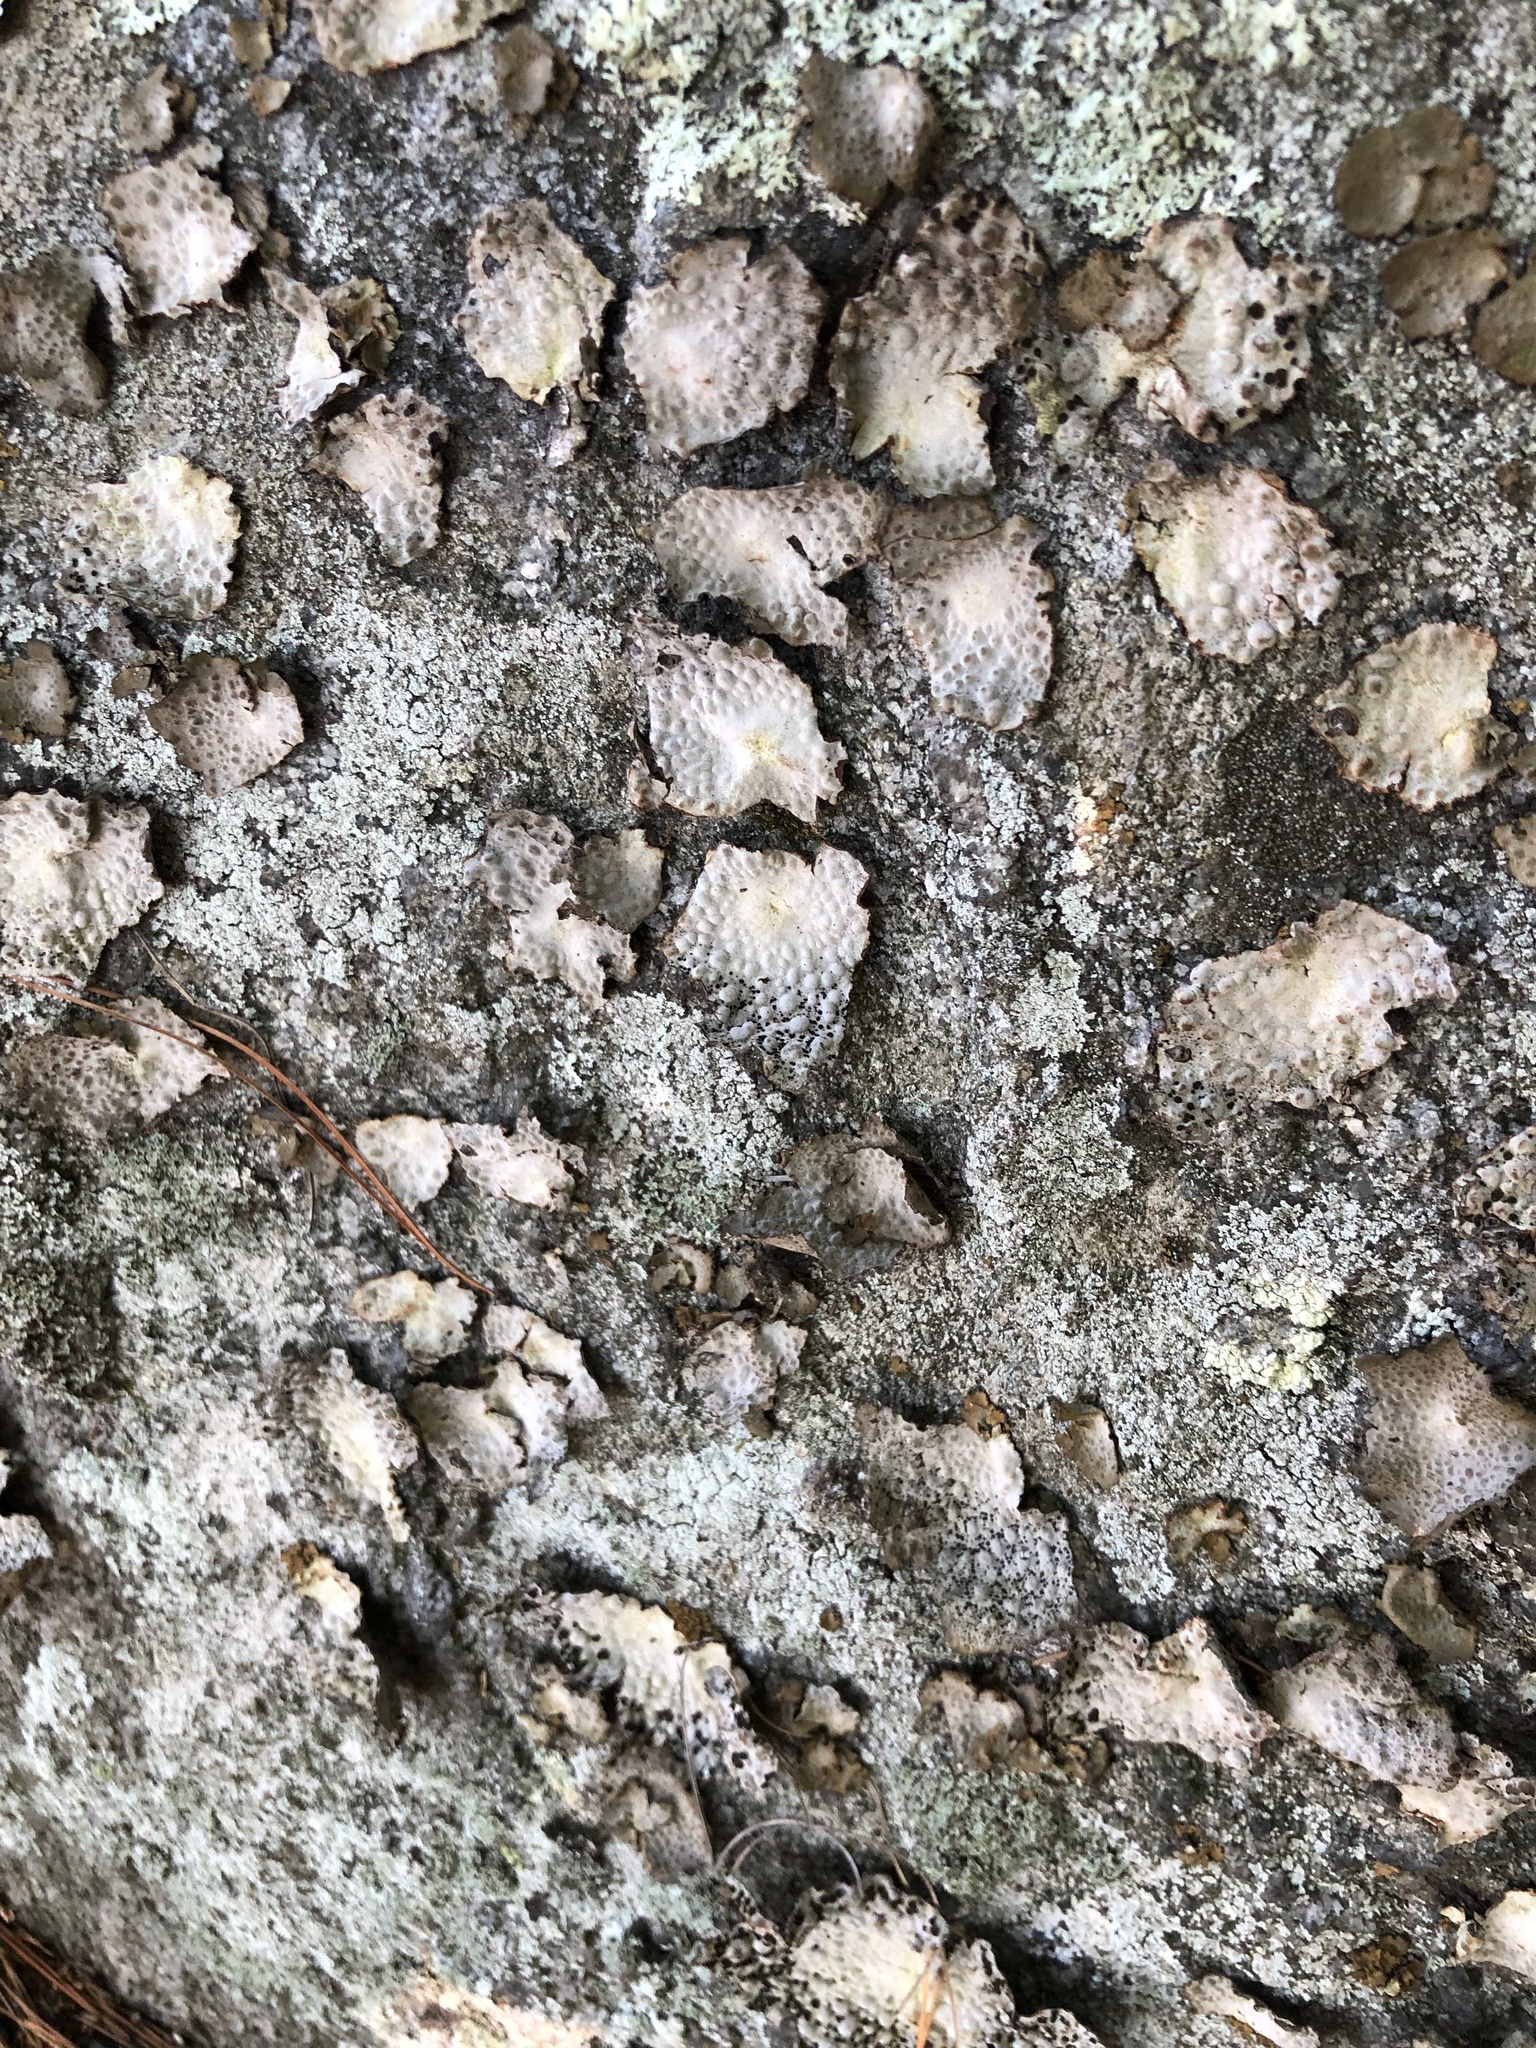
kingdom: Fungi
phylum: Ascomycota
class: Lecanoromycetes
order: Umbilicariales
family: Umbilicariaceae
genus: Lasallia
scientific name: Lasallia papulosa
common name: Common toadskin lichen
